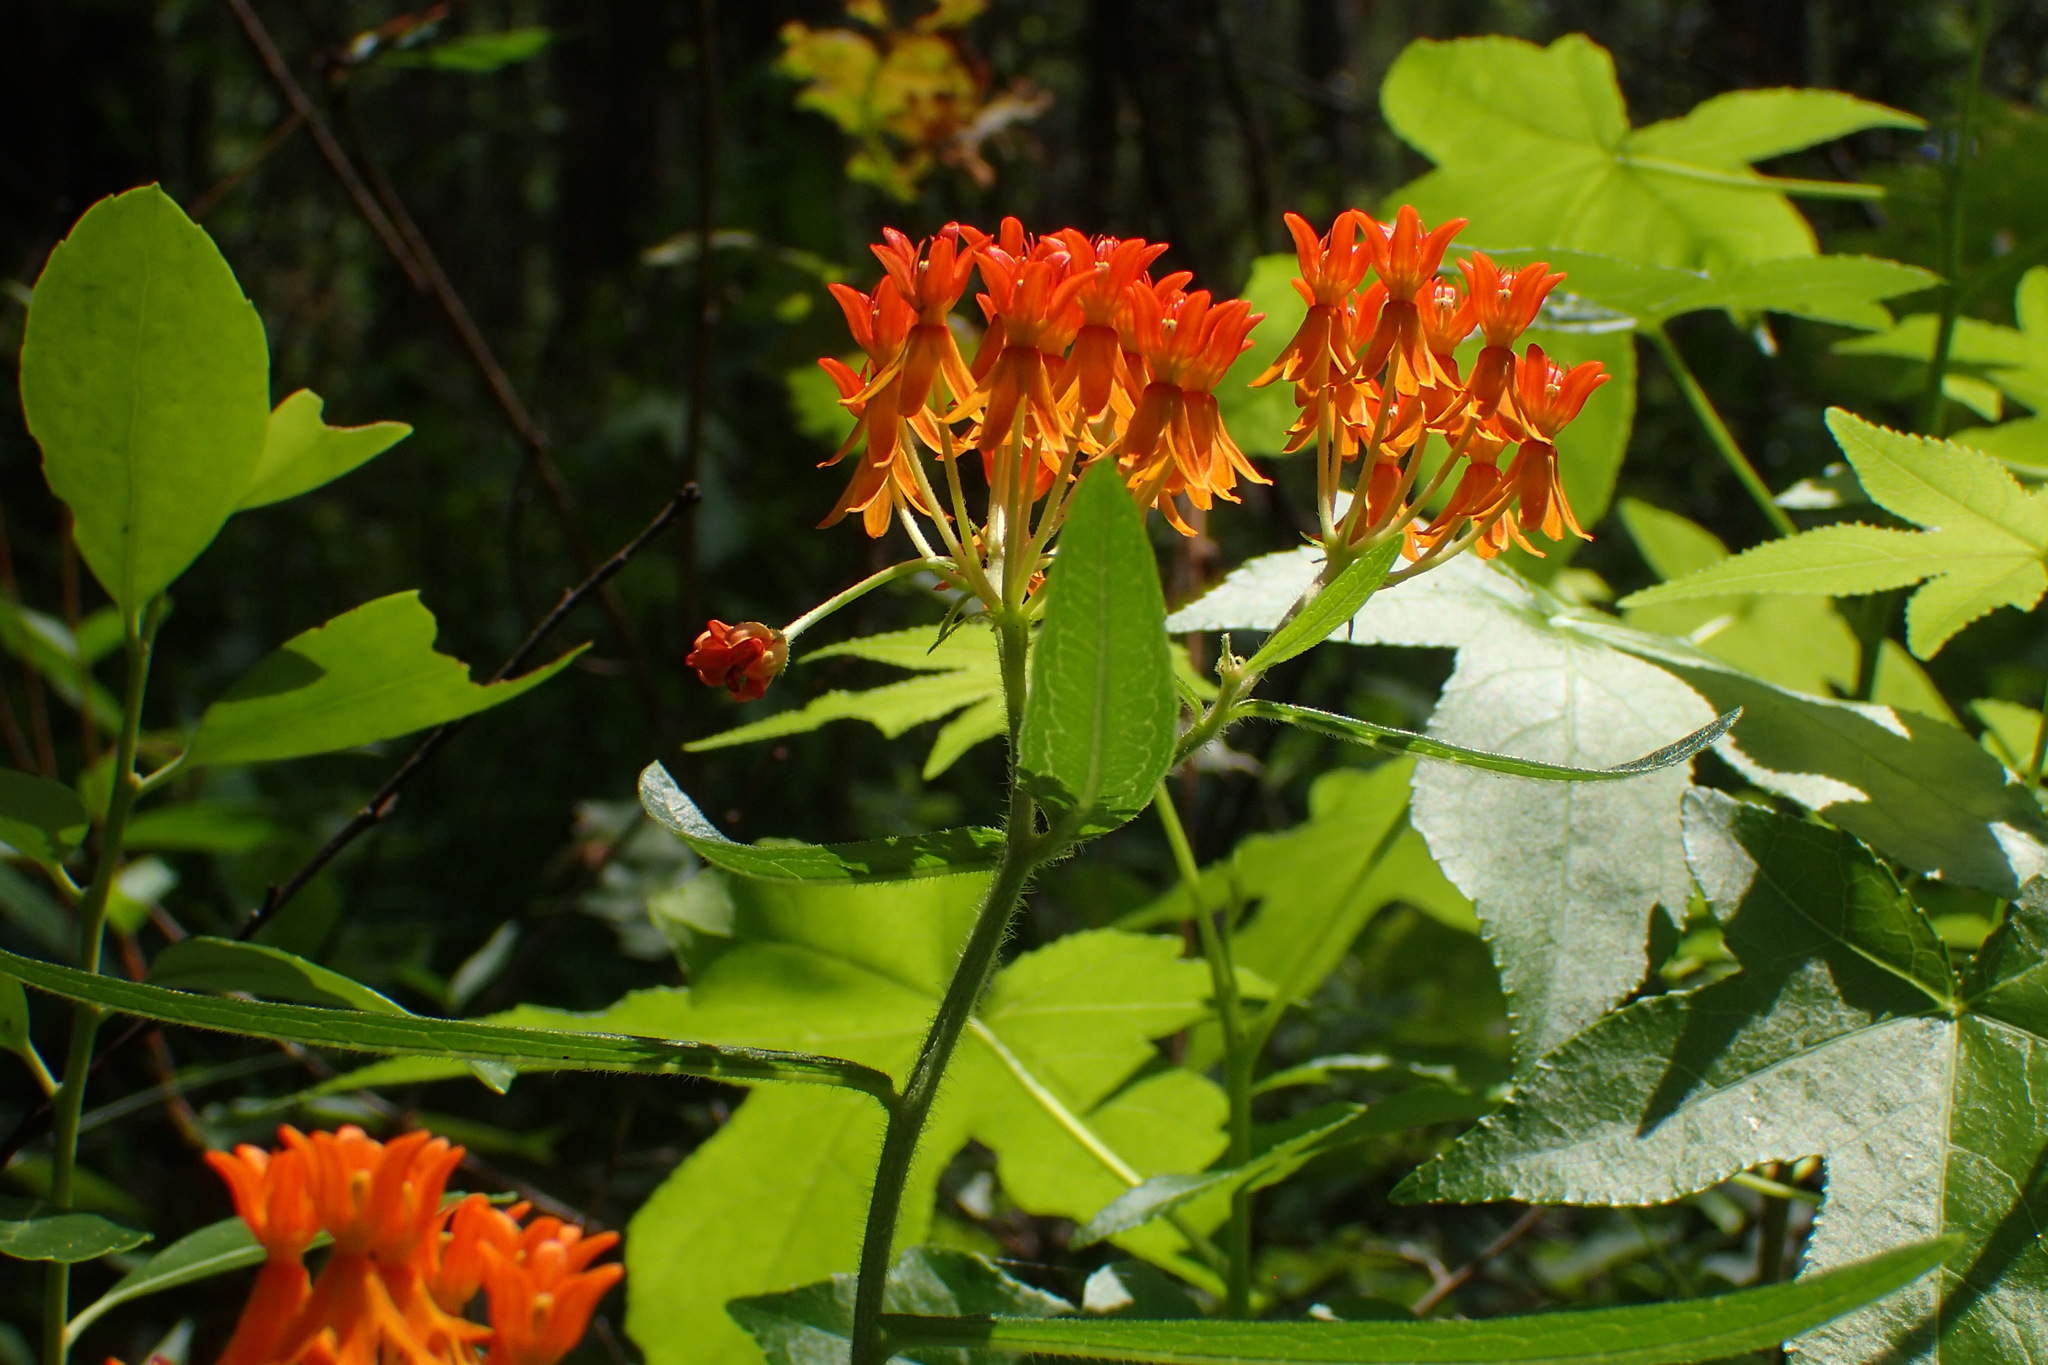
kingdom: Plantae
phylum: Tracheophyta
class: Magnoliopsida
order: Gentianales
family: Apocynaceae
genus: Asclepias
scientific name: Asclepias tuberosa
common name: Butterfly milkweed
